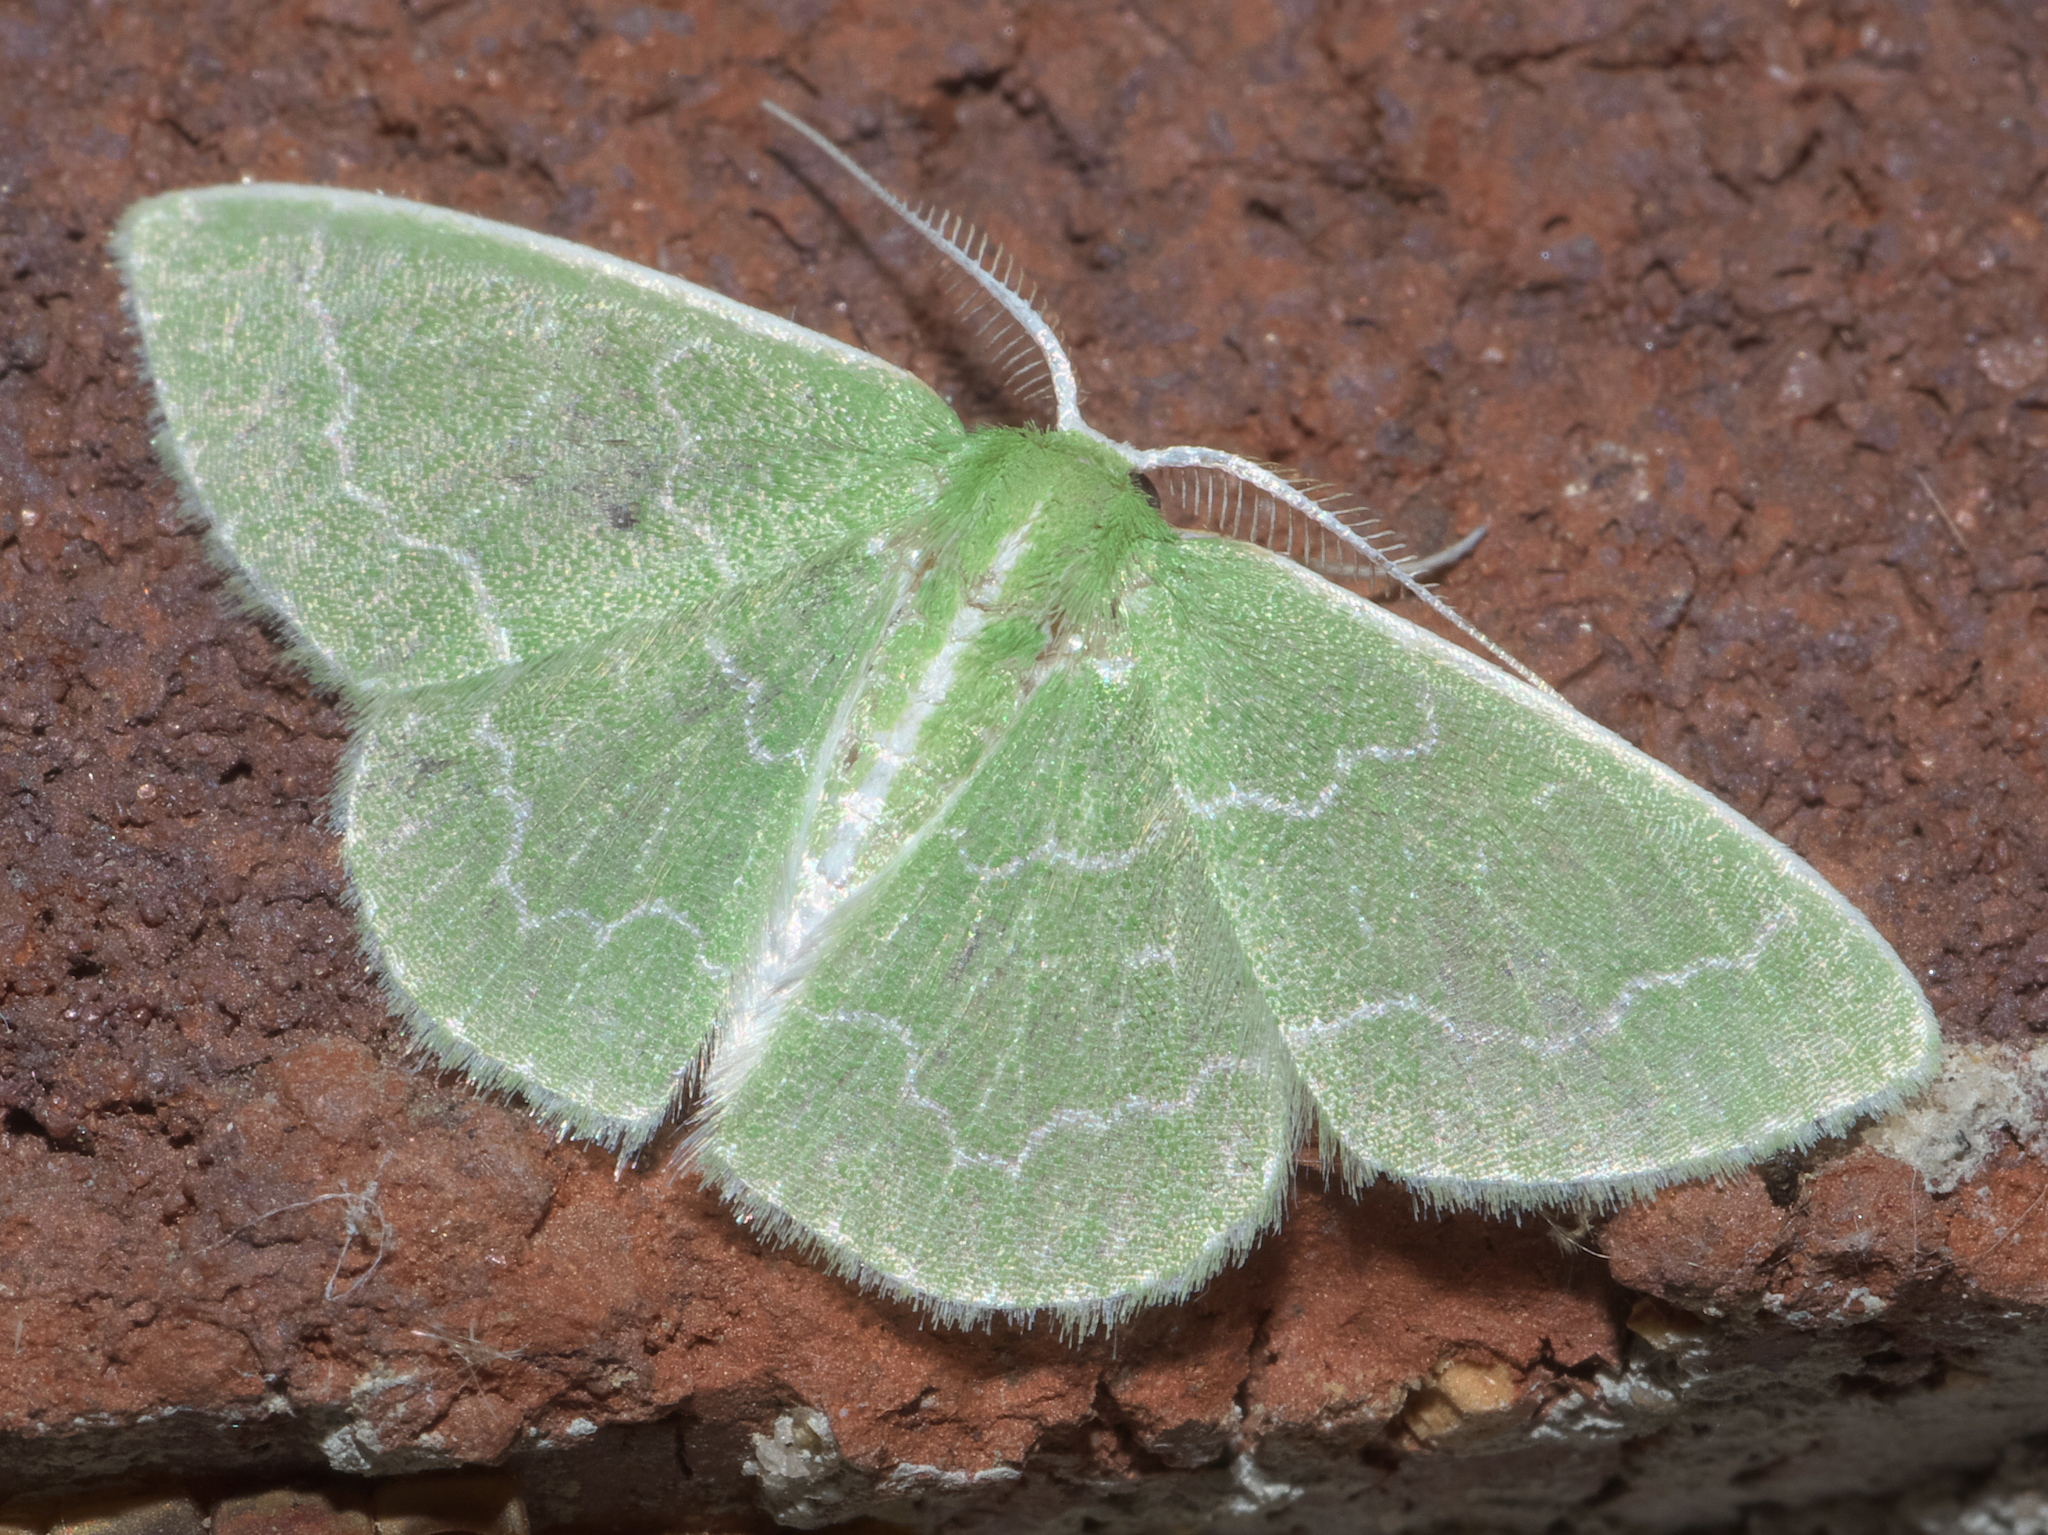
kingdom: Animalia
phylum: Arthropoda
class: Insecta
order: Lepidoptera
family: Geometridae
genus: Synchlora
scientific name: Synchlora frondaria
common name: Southern emerald
